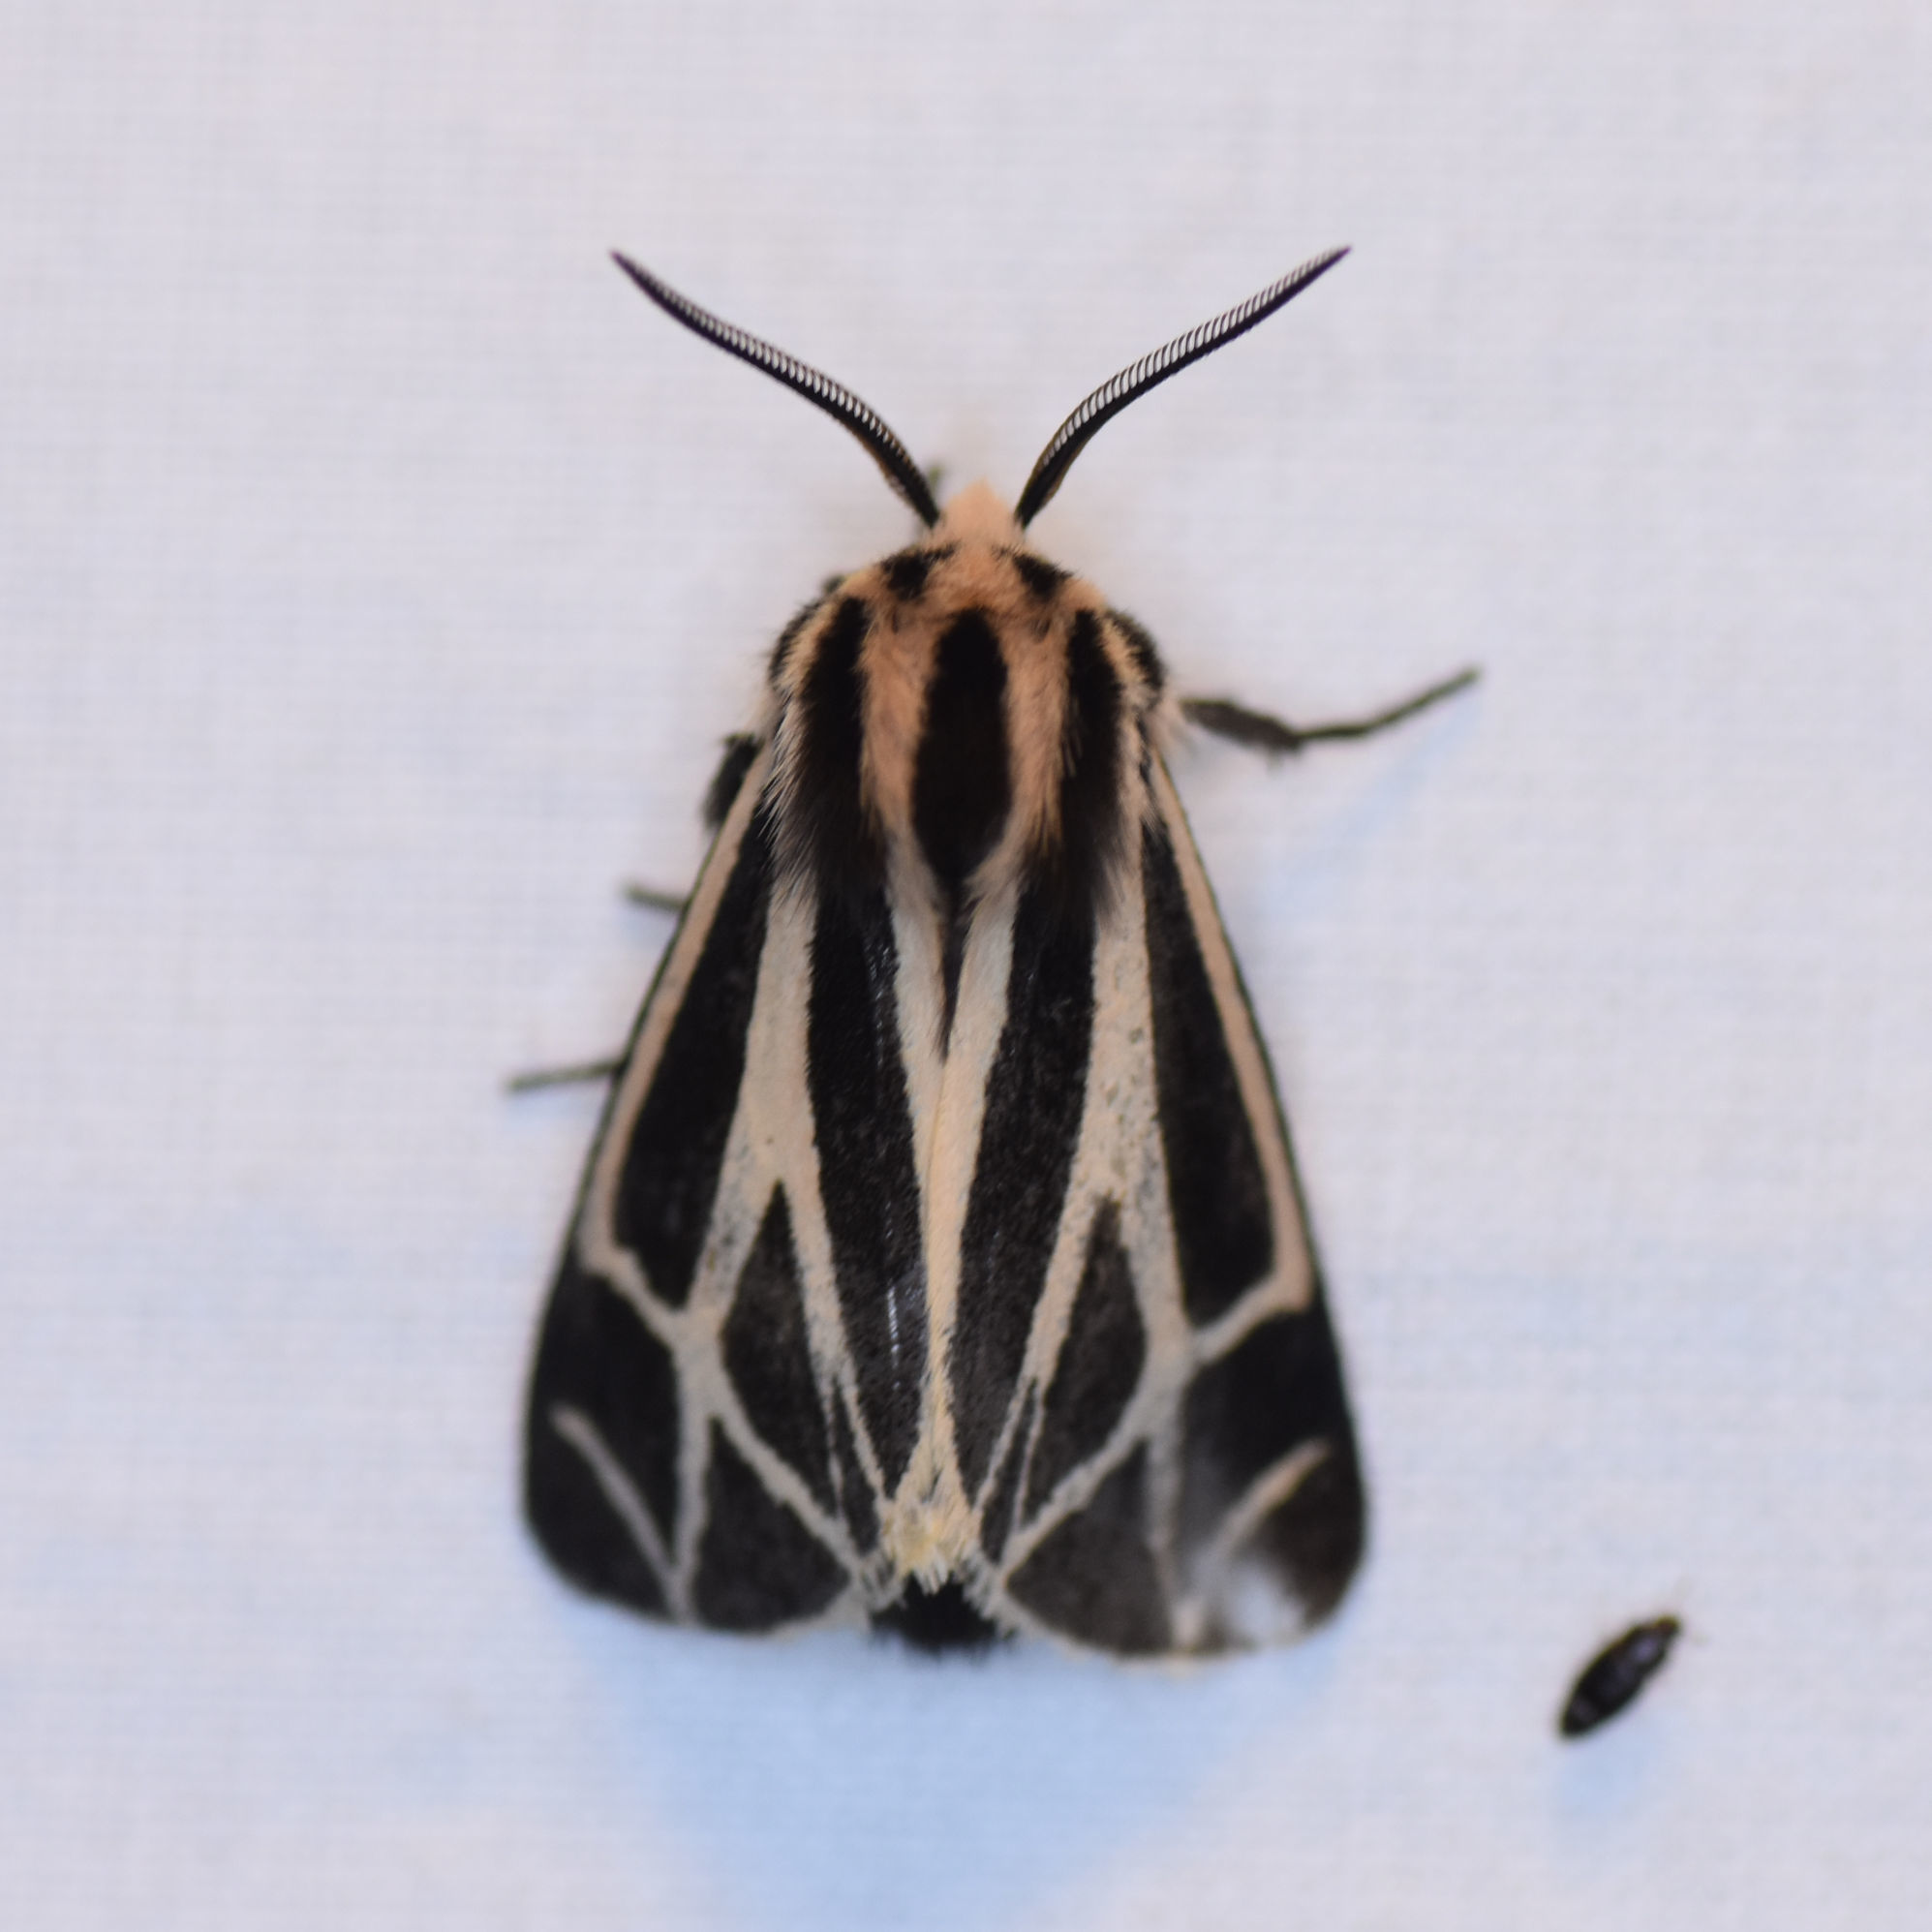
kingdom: Animalia
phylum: Arthropoda
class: Insecta
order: Lepidoptera
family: Erebidae
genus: Apantesis
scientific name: Apantesis phalerata
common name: Harnessed tiger moth
